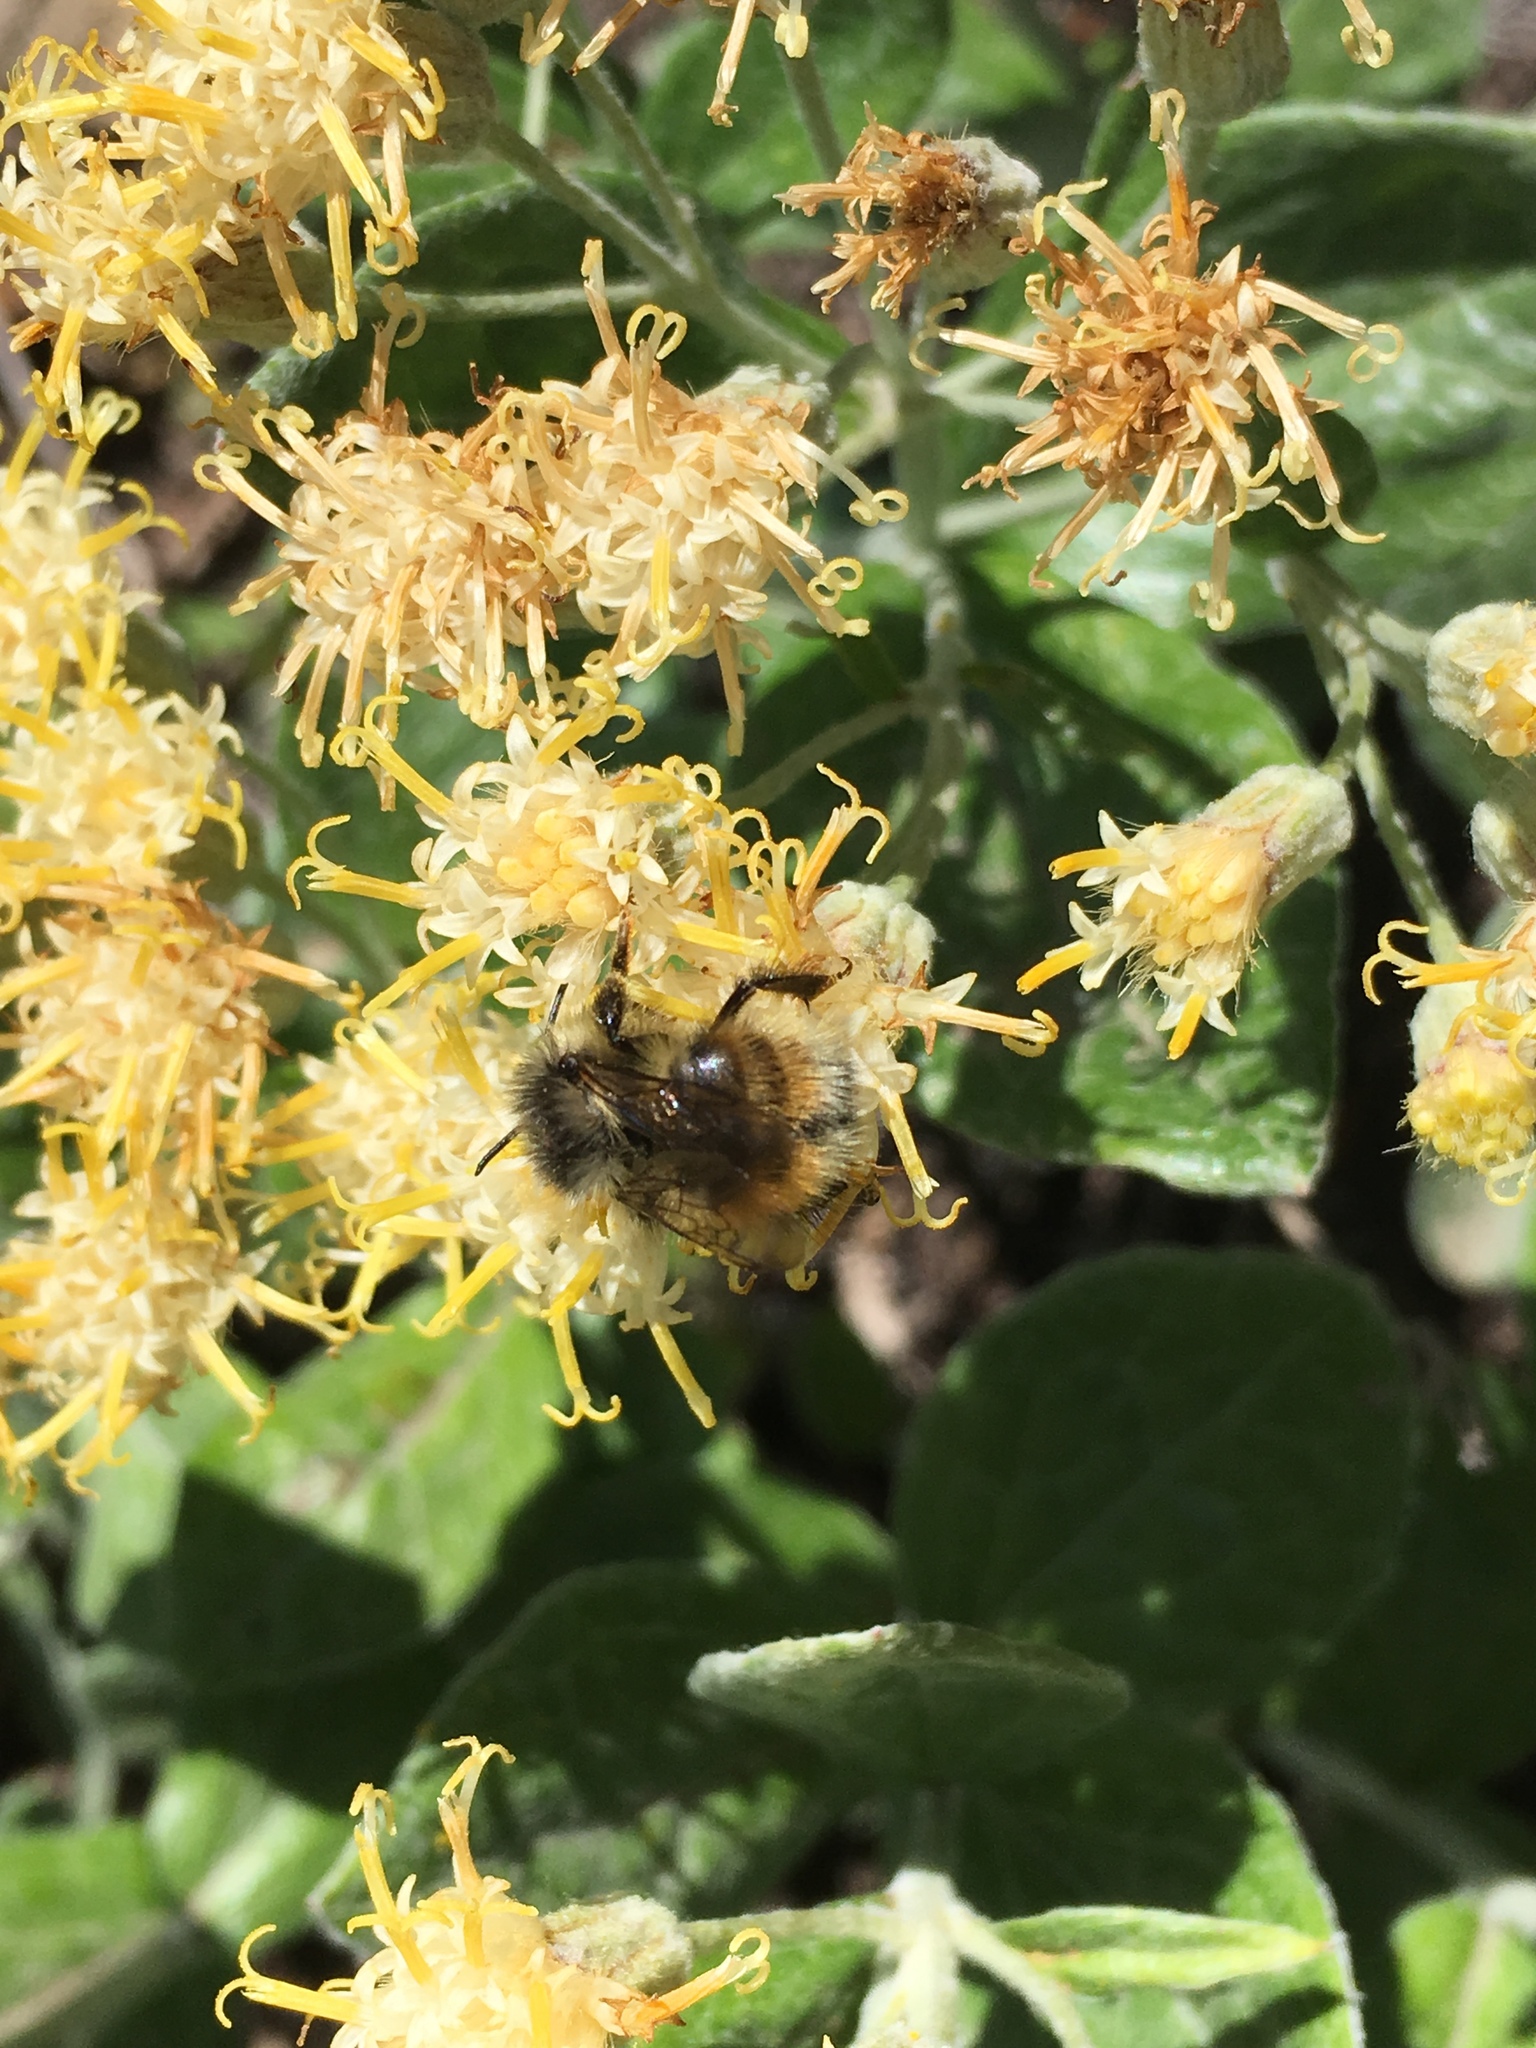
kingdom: Plantae
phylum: Tracheophyta
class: Magnoliopsida
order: Asterales
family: Asteraceae
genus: Luina
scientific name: Luina hypoleuca
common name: Little-leaved luina
